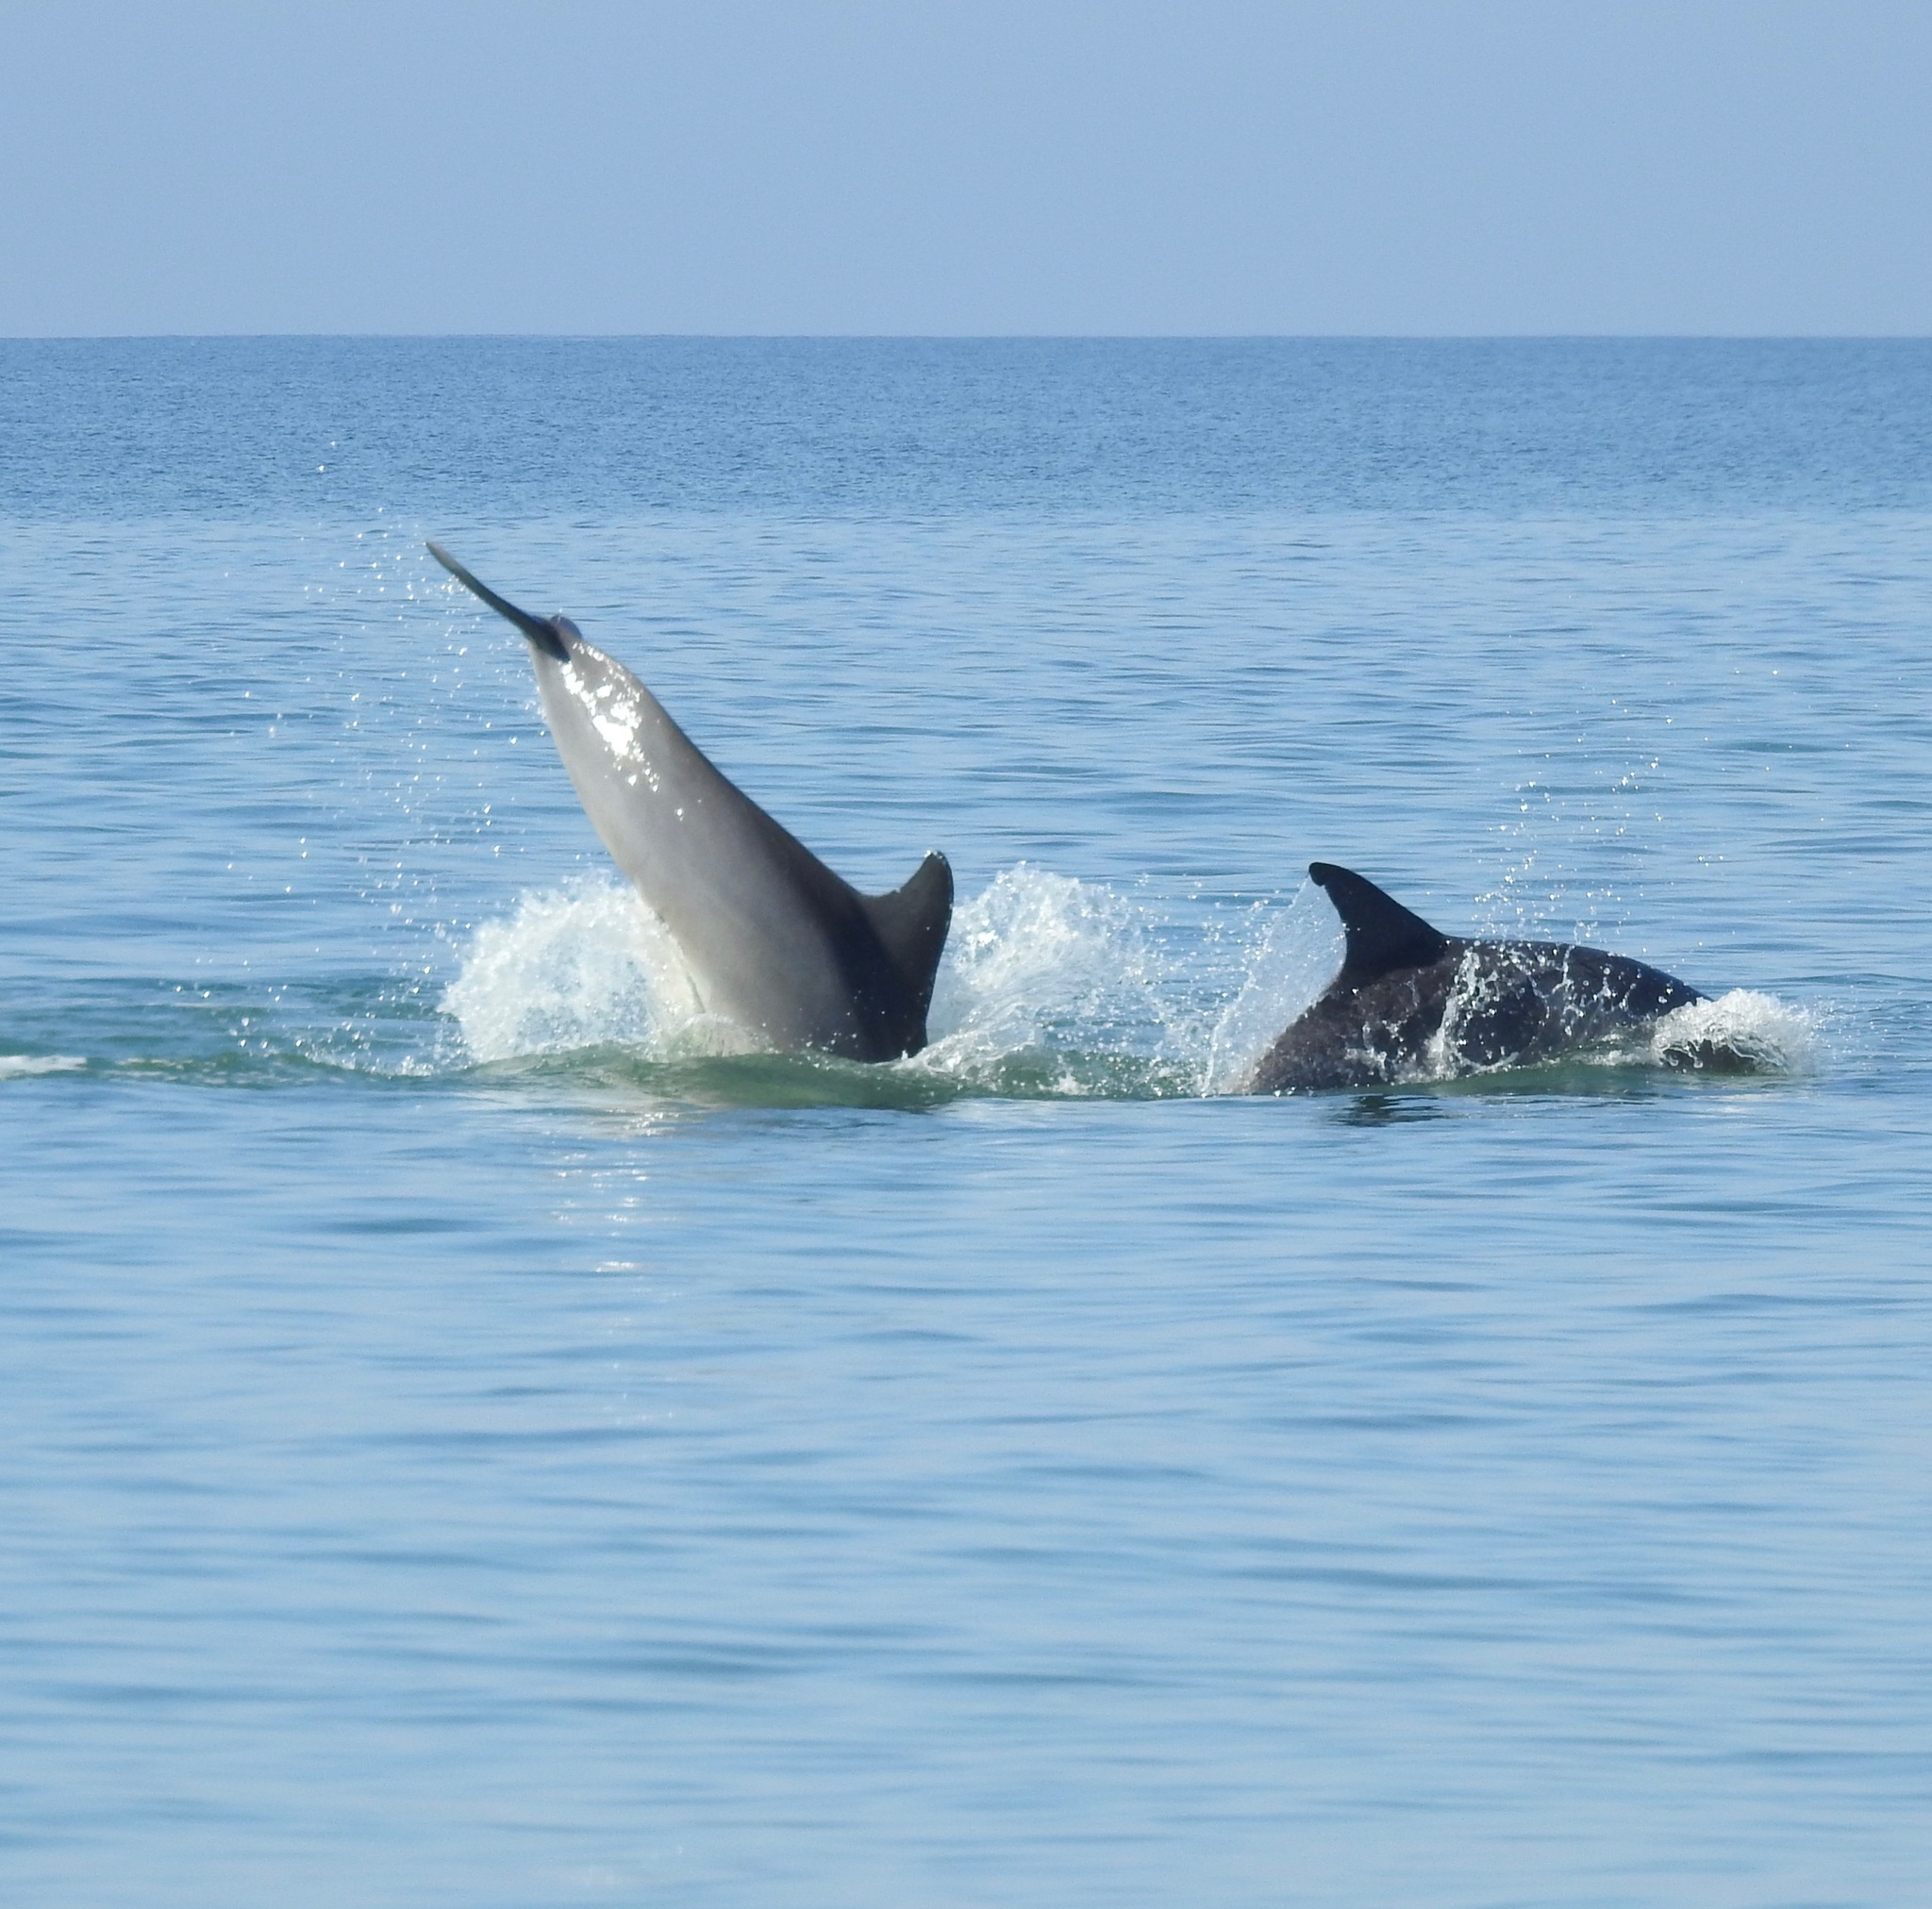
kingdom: Animalia
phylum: Chordata
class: Mammalia
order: Cetacea
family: Delphinidae
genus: Tursiops
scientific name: Tursiops truncatus
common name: Bottlenose dolphin
